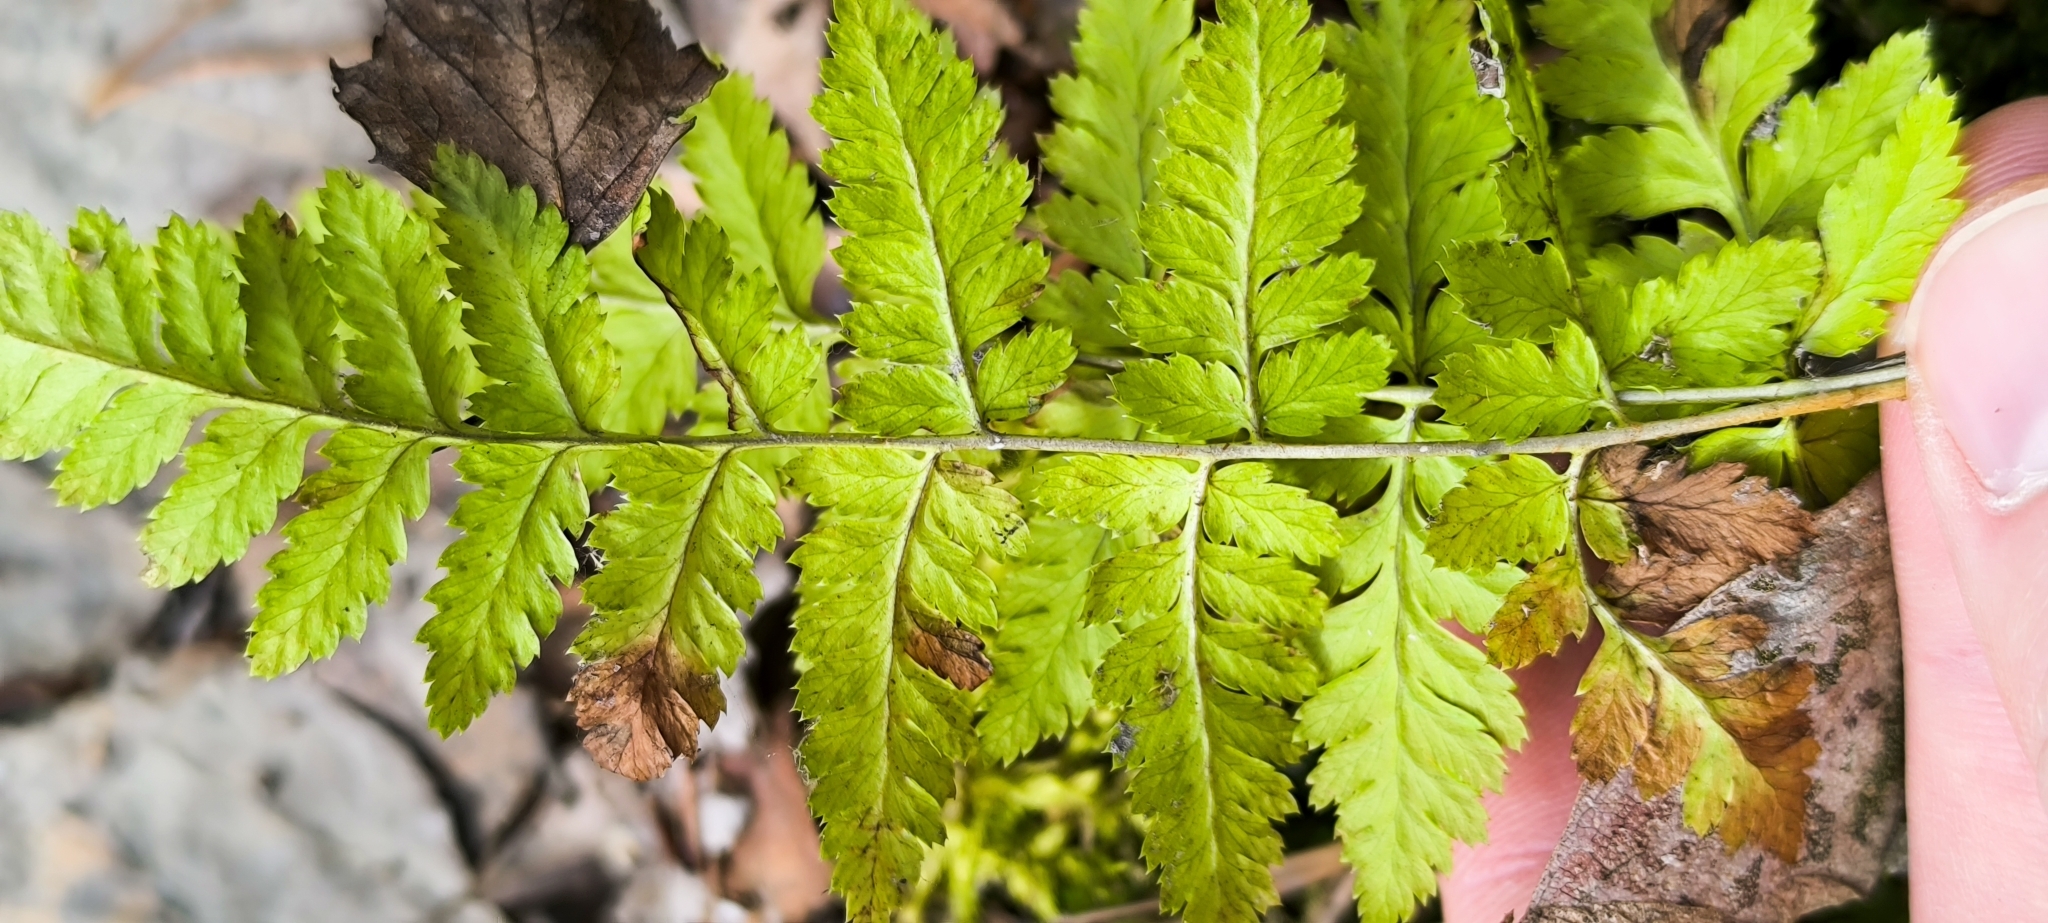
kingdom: Plantae
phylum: Tracheophyta
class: Polypodiopsida
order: Polypodiales
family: Dryopteridaceae
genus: Dryopteris
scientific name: Dryopteris carthusiana
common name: Narrow buckler-fern
